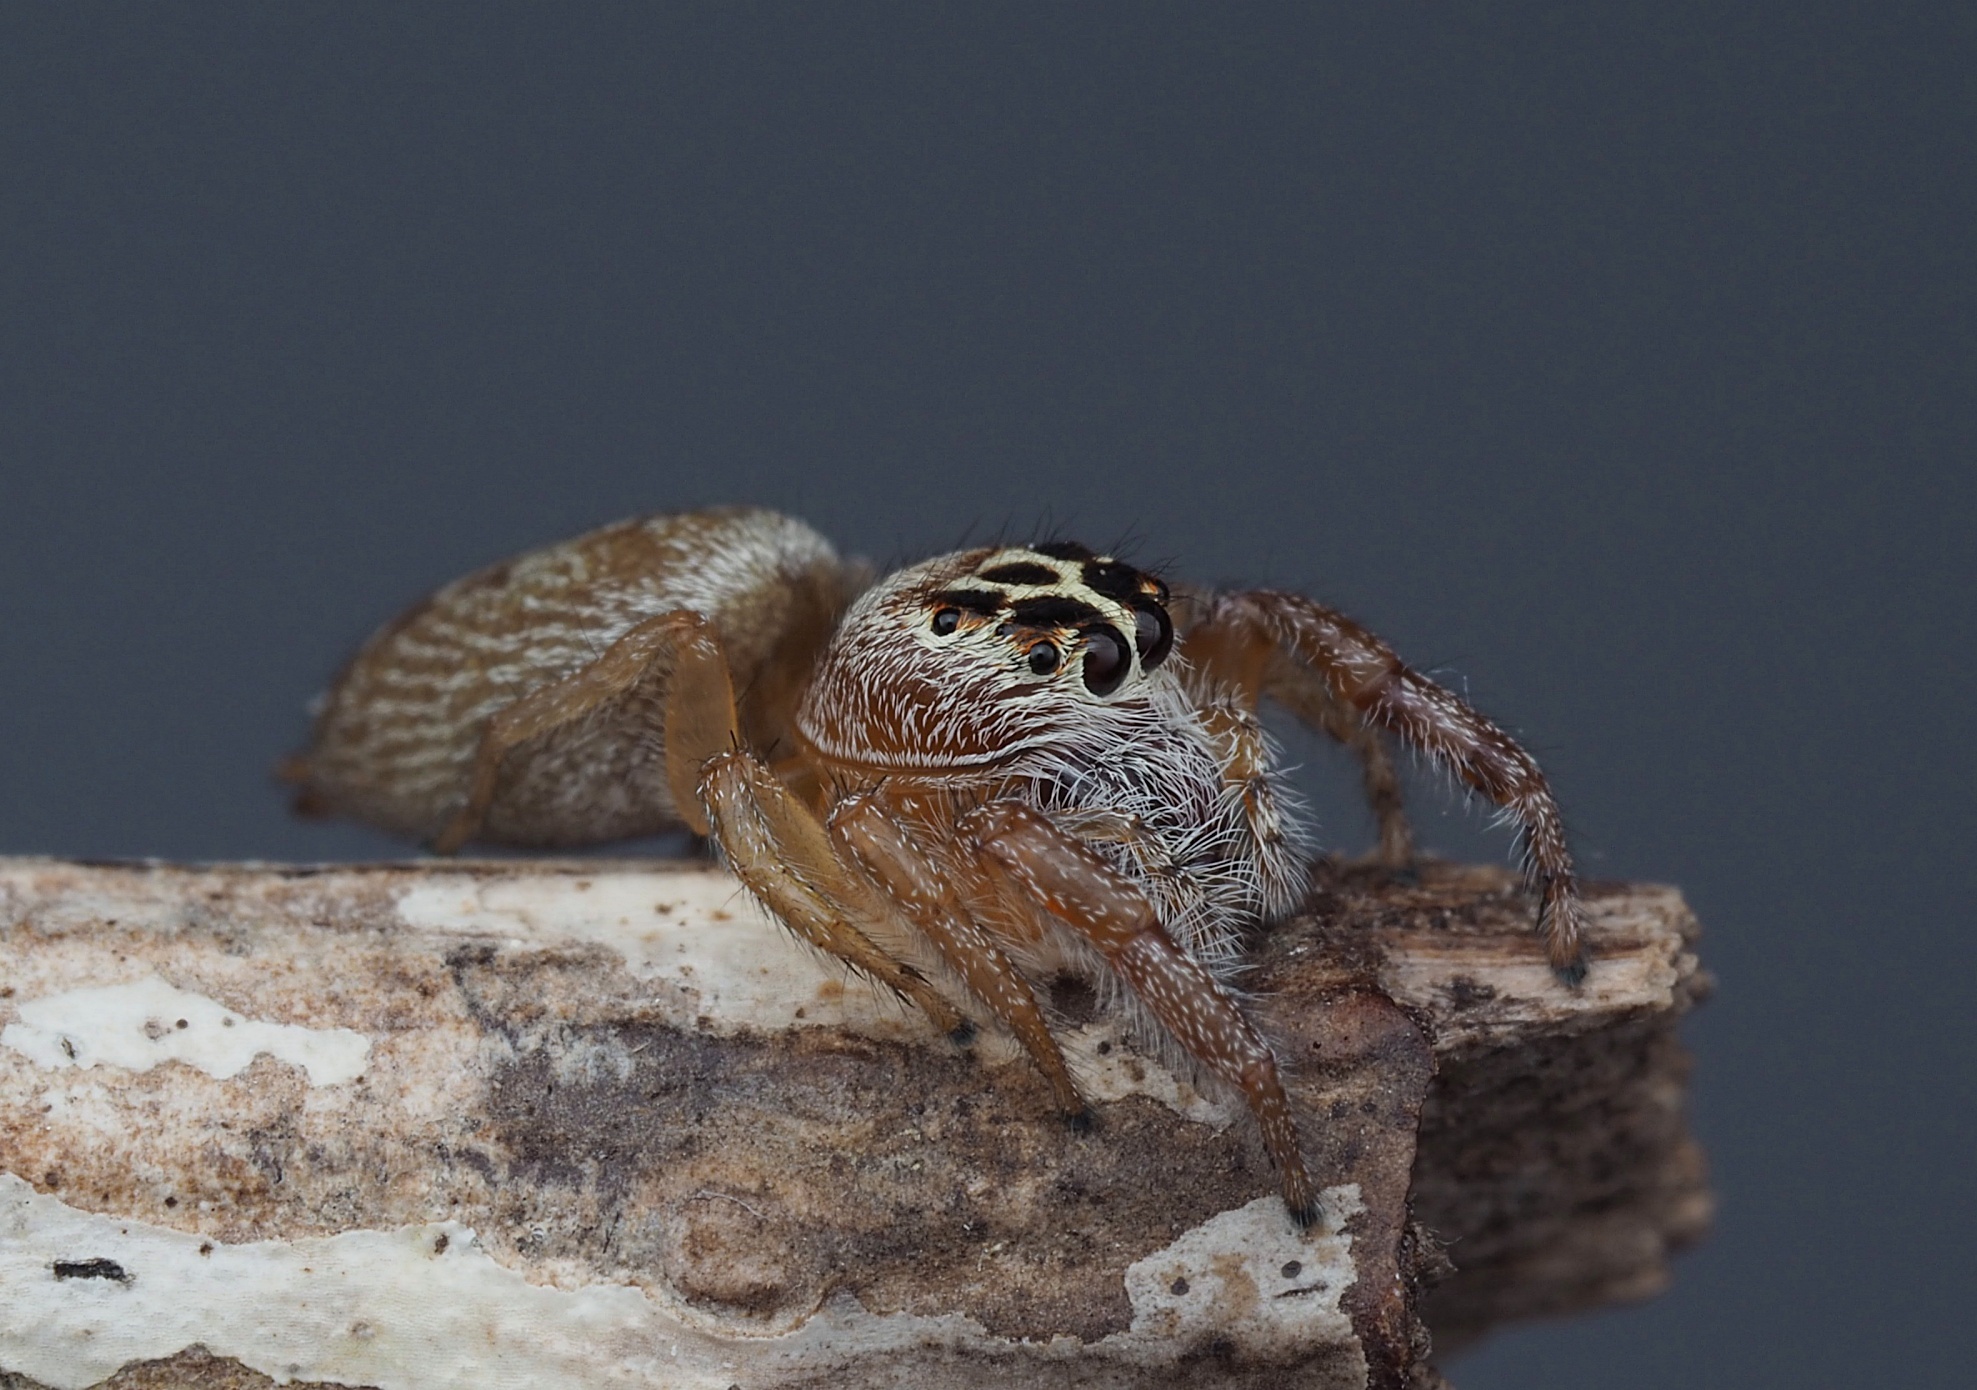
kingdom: Animalia
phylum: Arthropoda
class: Arachnida
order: Araneae
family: Salticidae
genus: Opisthoncus
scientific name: Opisthoncus polyphemus
